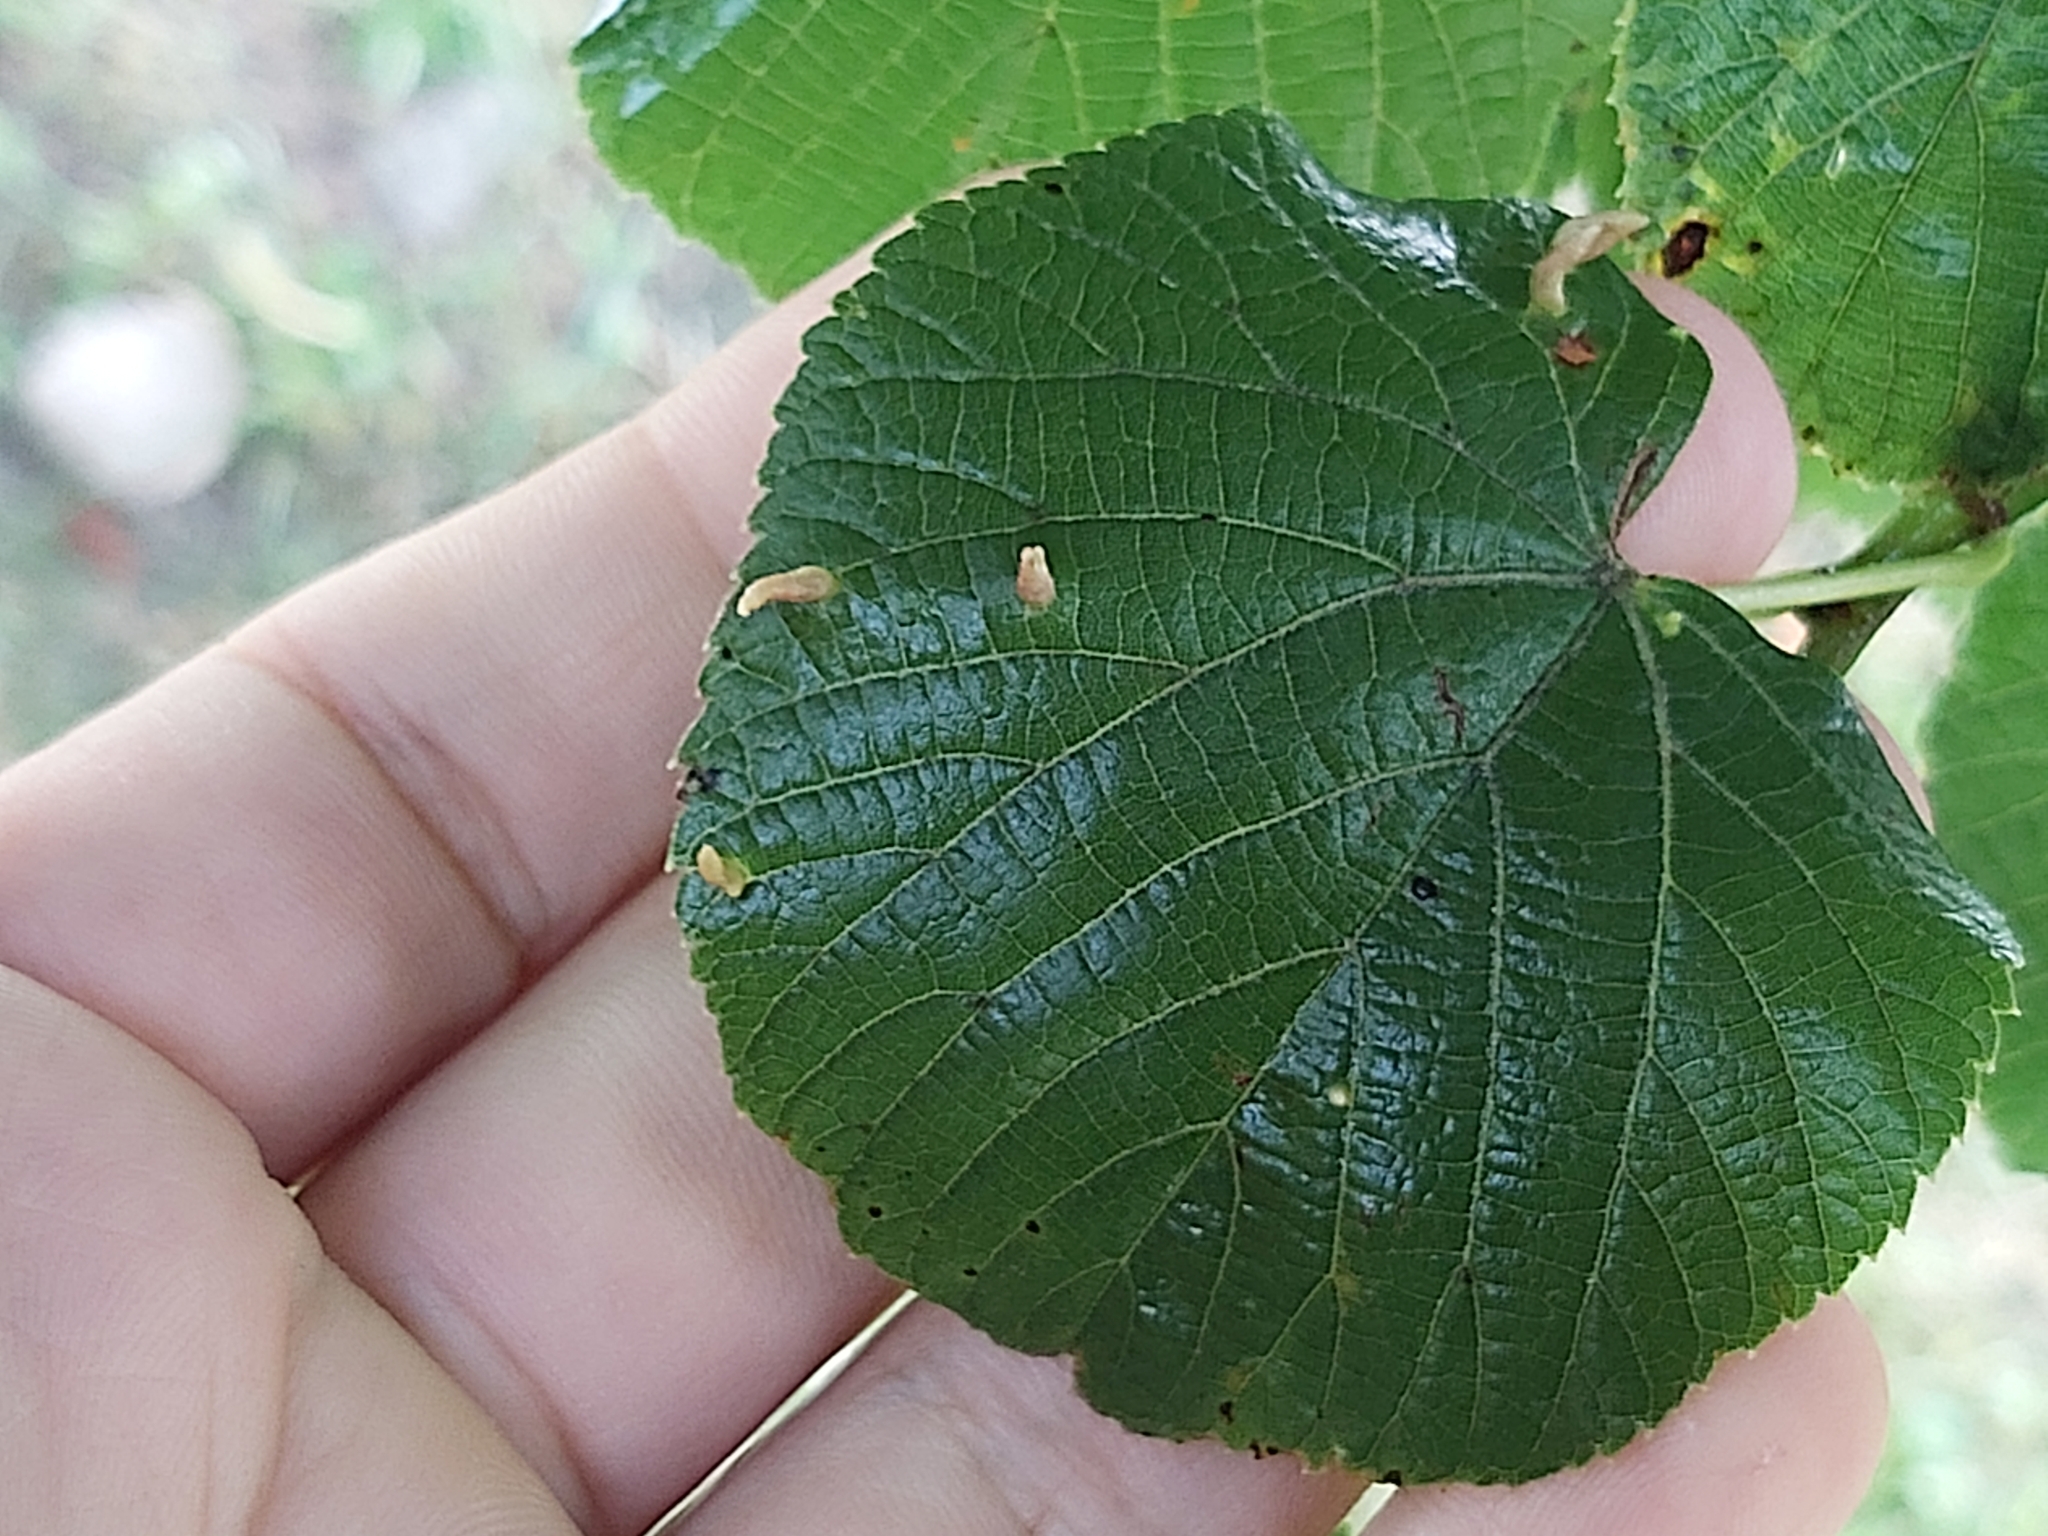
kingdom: Animalia
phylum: Arthropoda
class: Arachnida
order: Trombidiformes
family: Eriophyidae
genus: Eriophyes
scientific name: Eriophyes tiliae
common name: Red nail gall mite
